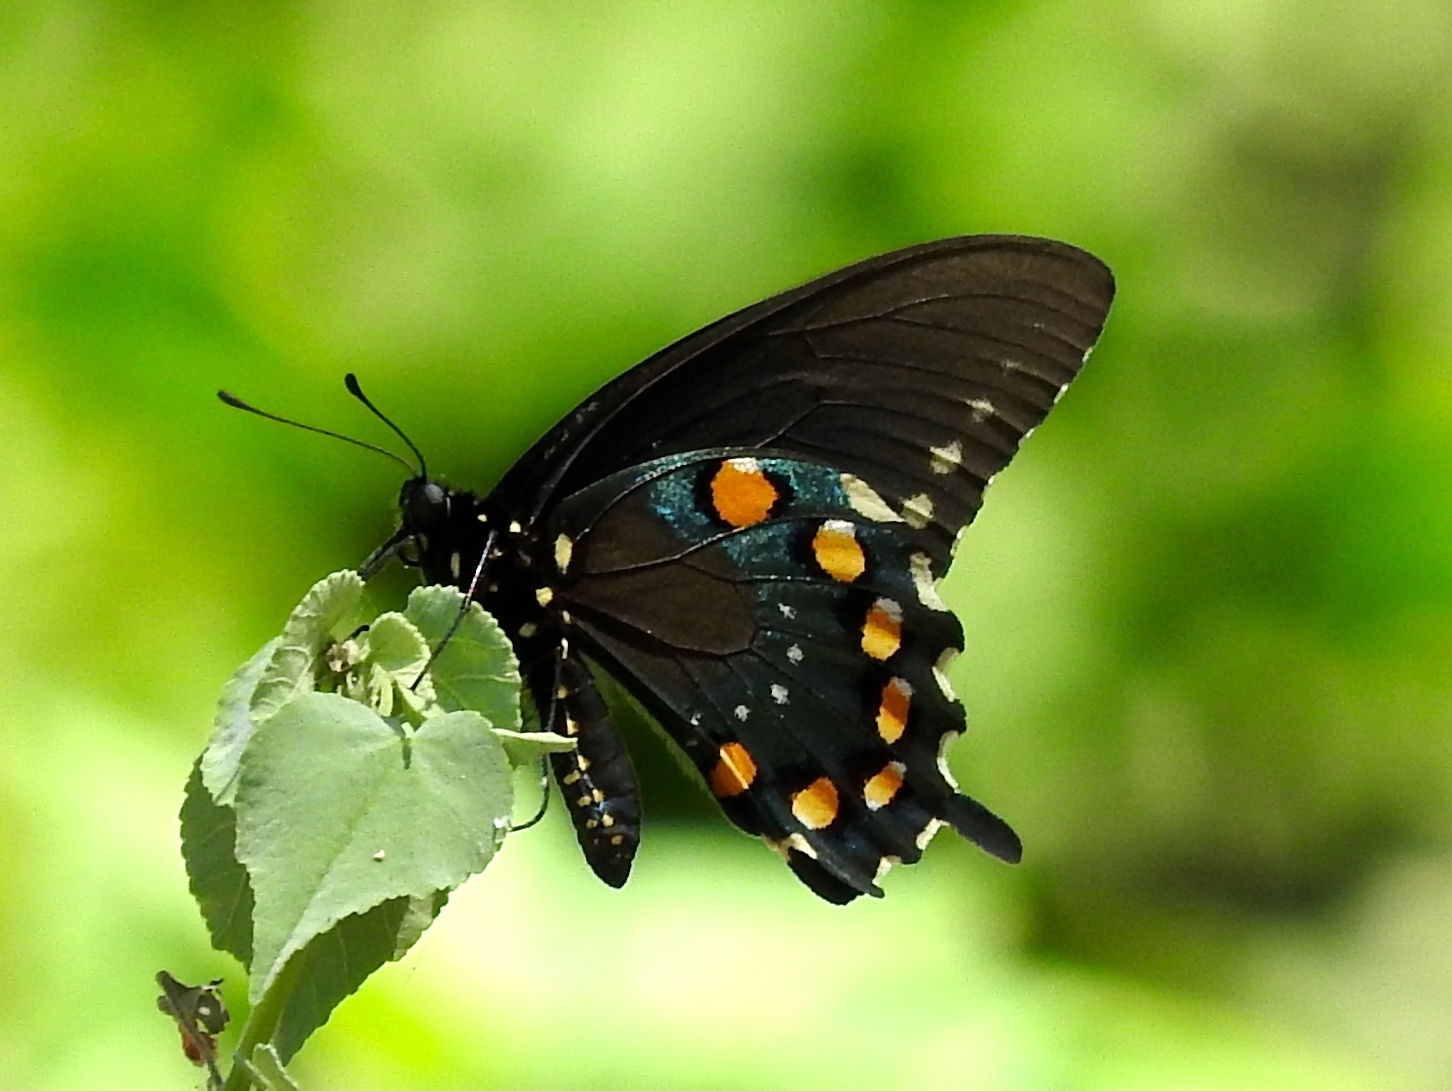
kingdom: Animalia
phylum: Arthropoda
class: Insecta
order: Lepidoptera
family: Papilionidae
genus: Battus
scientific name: Battus philenor
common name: Pipevine swallowtail
